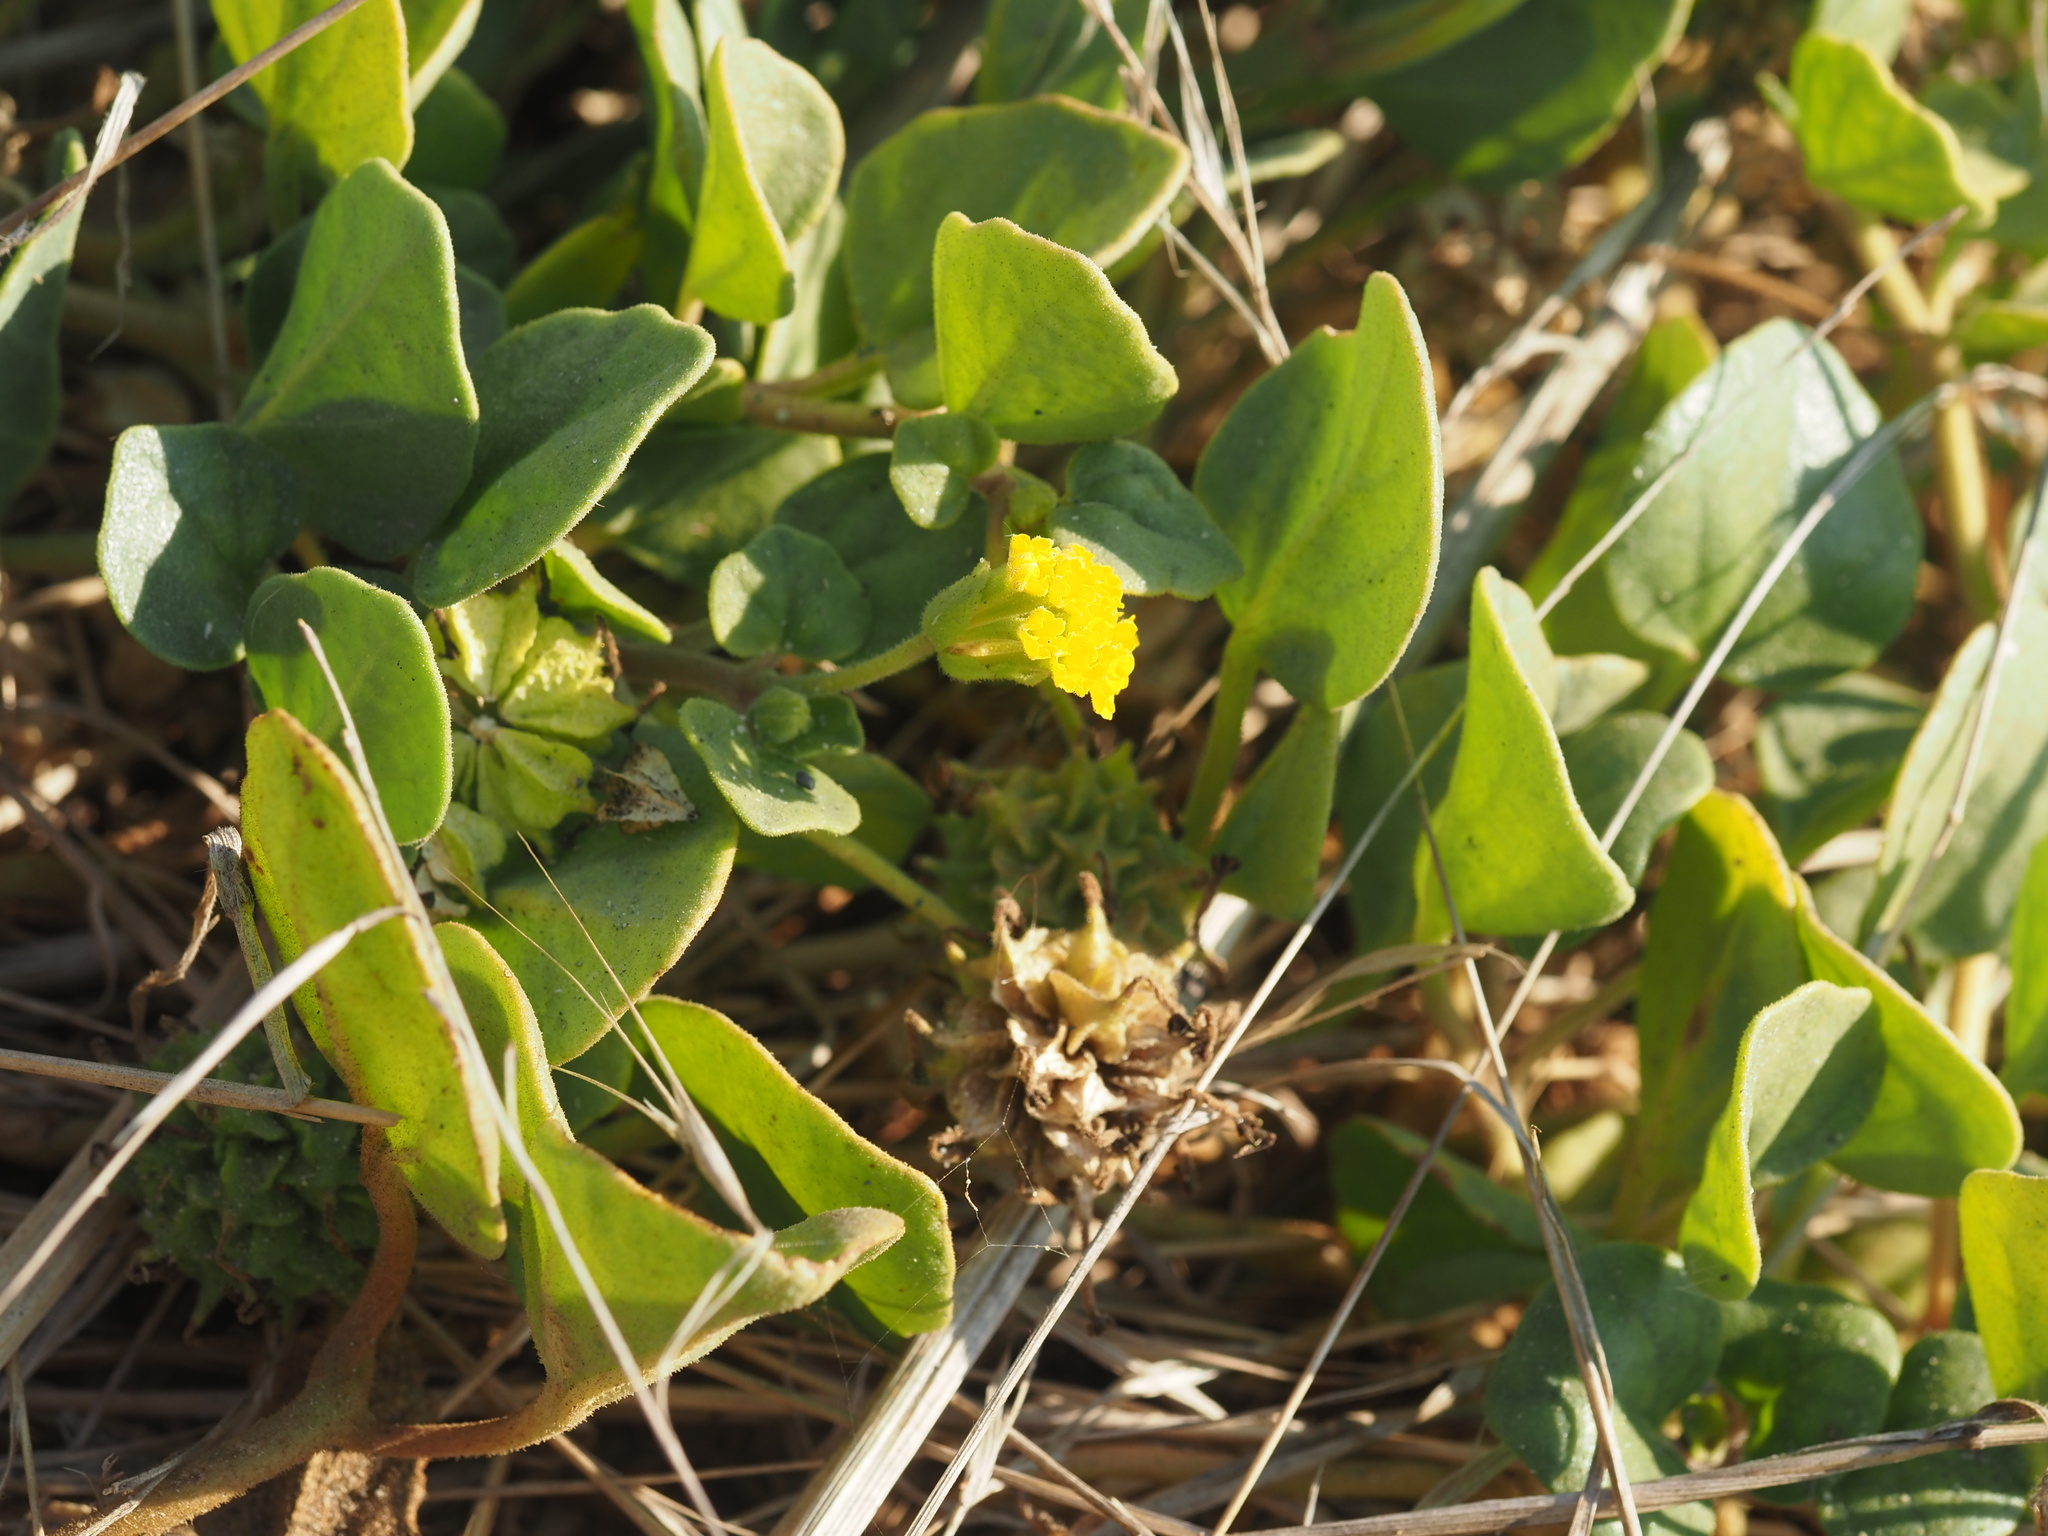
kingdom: Plantae
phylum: Tracheophyta
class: Magnoliopsida
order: Caryophyllales
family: Nyctaginaceae
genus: Abronia
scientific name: Abronia latifolia
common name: Yellow sand-verbena
